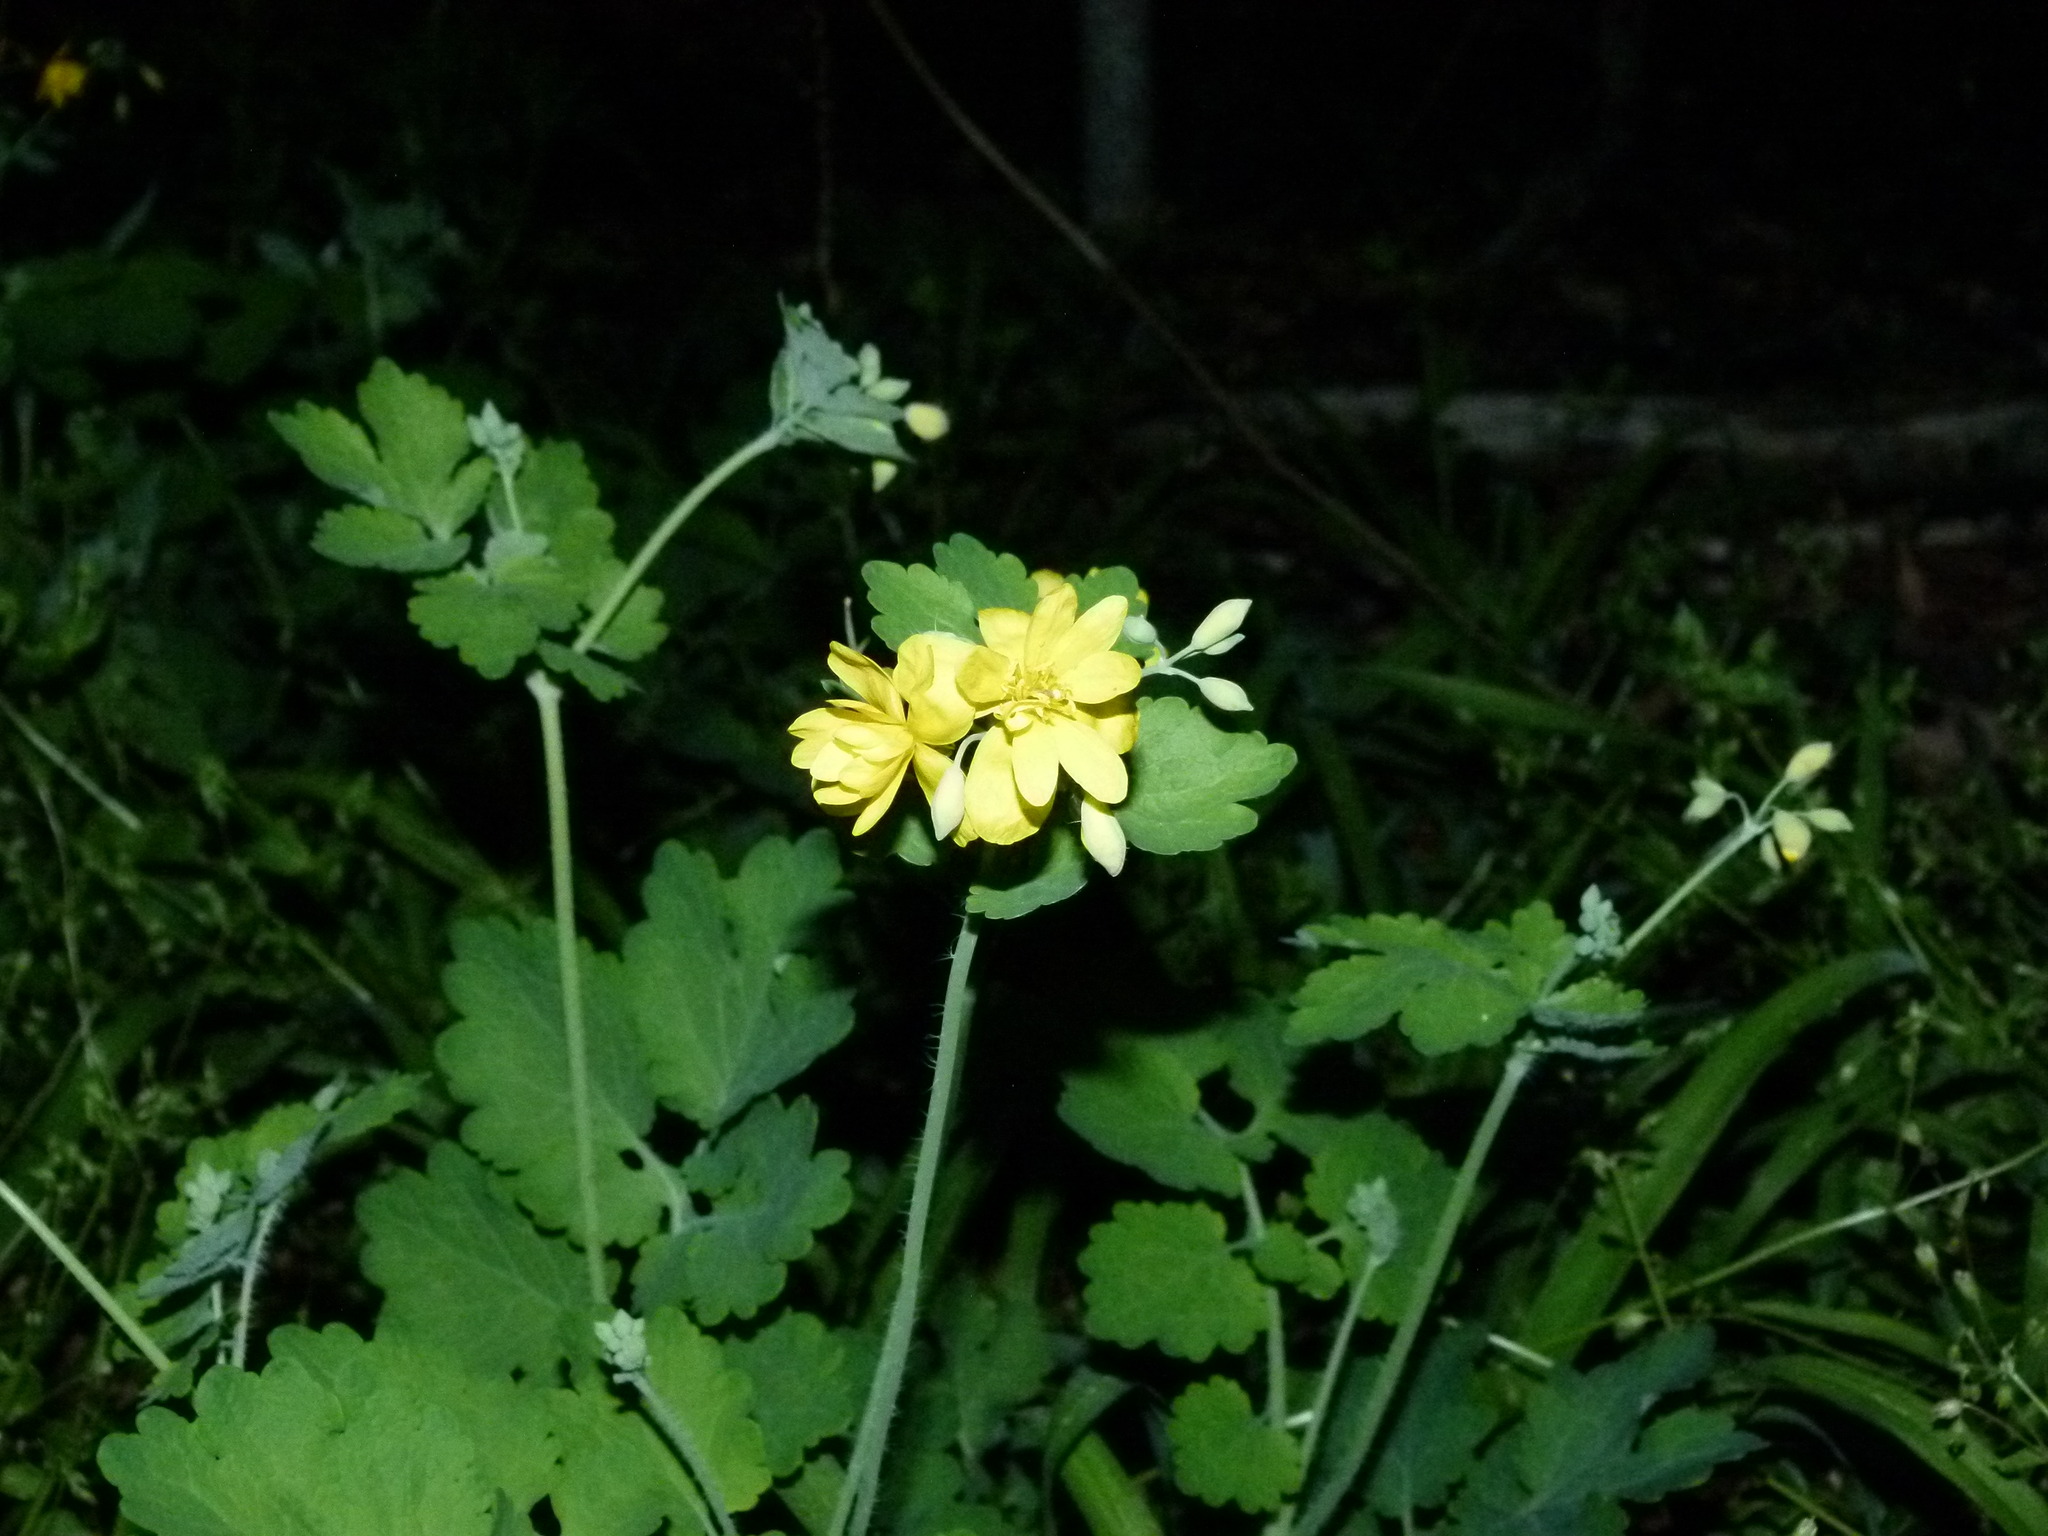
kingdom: Plantae
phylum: Tracheophyta
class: Magnoliopsida
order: Ranunculales
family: Papaveraceae
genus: Chelidonium
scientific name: Chelidonium majus
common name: Greater celandine
